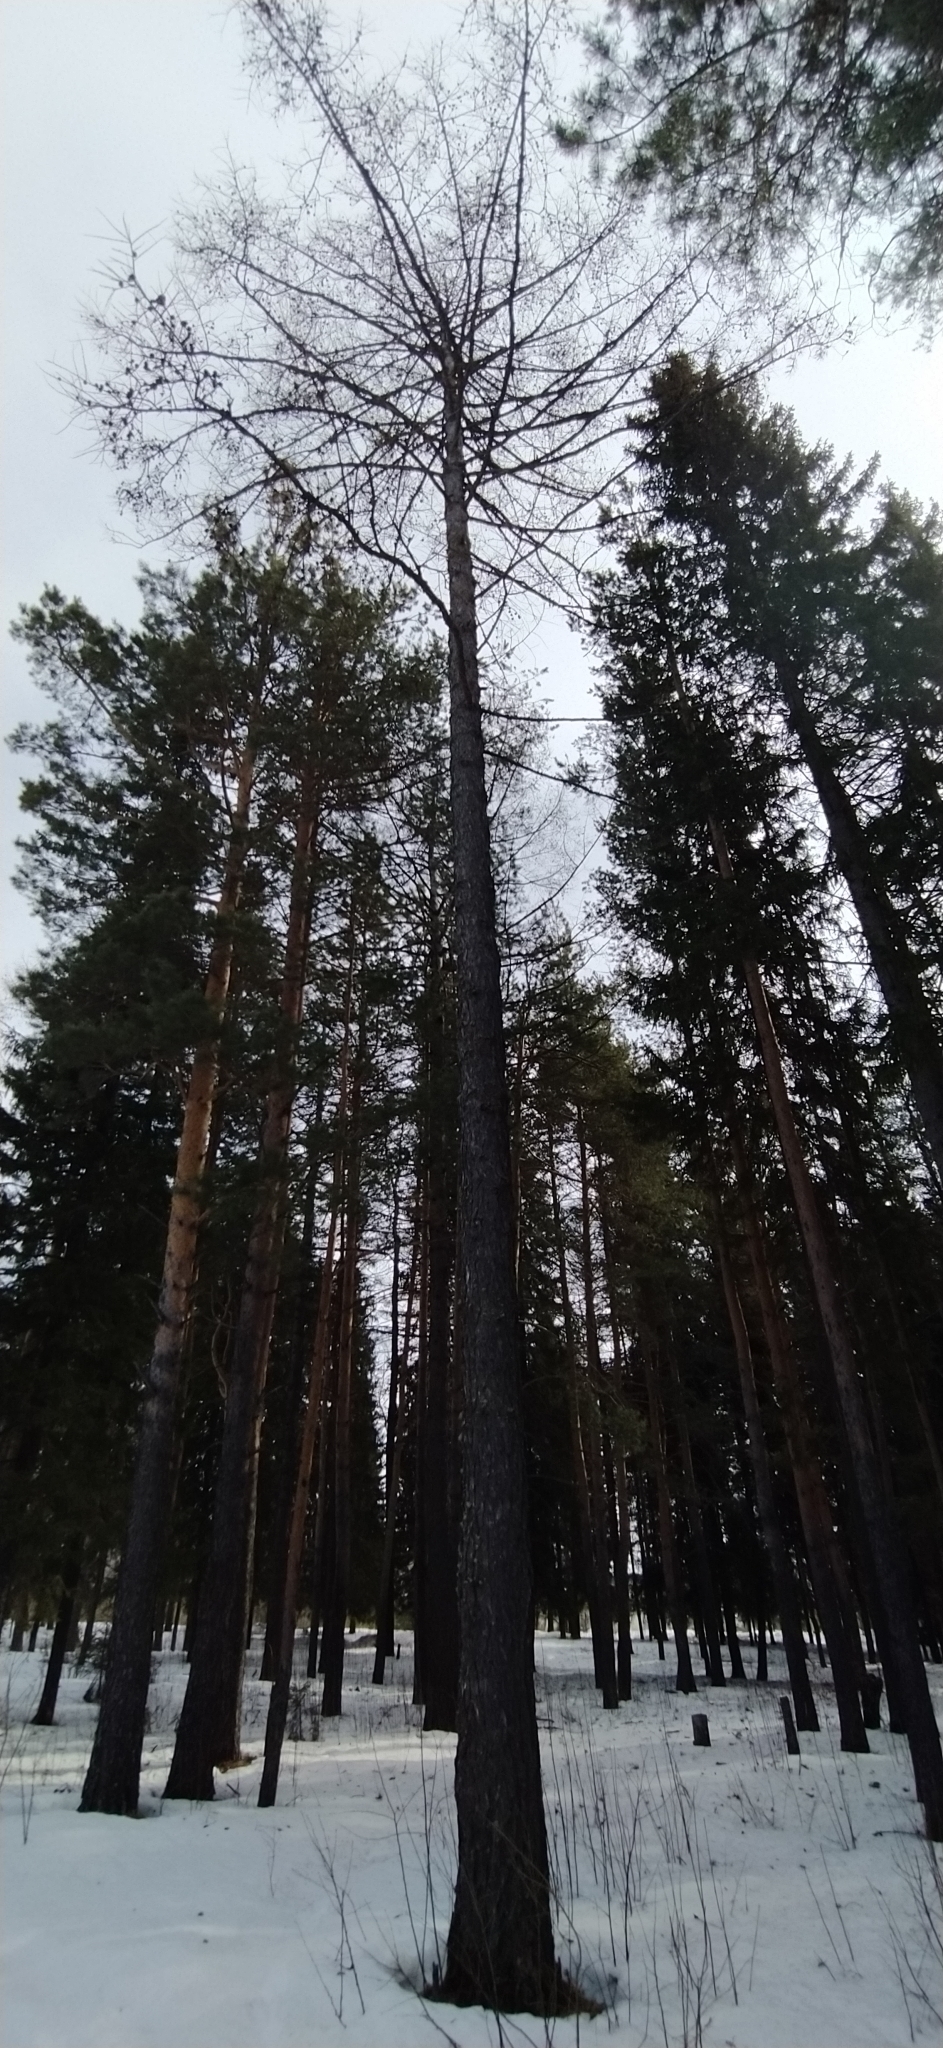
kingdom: Plantae
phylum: Tracheophyta
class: Pinopsida
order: Pinales
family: Pinaceae
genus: Larix
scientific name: Larix sibirica
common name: Siberian larch
